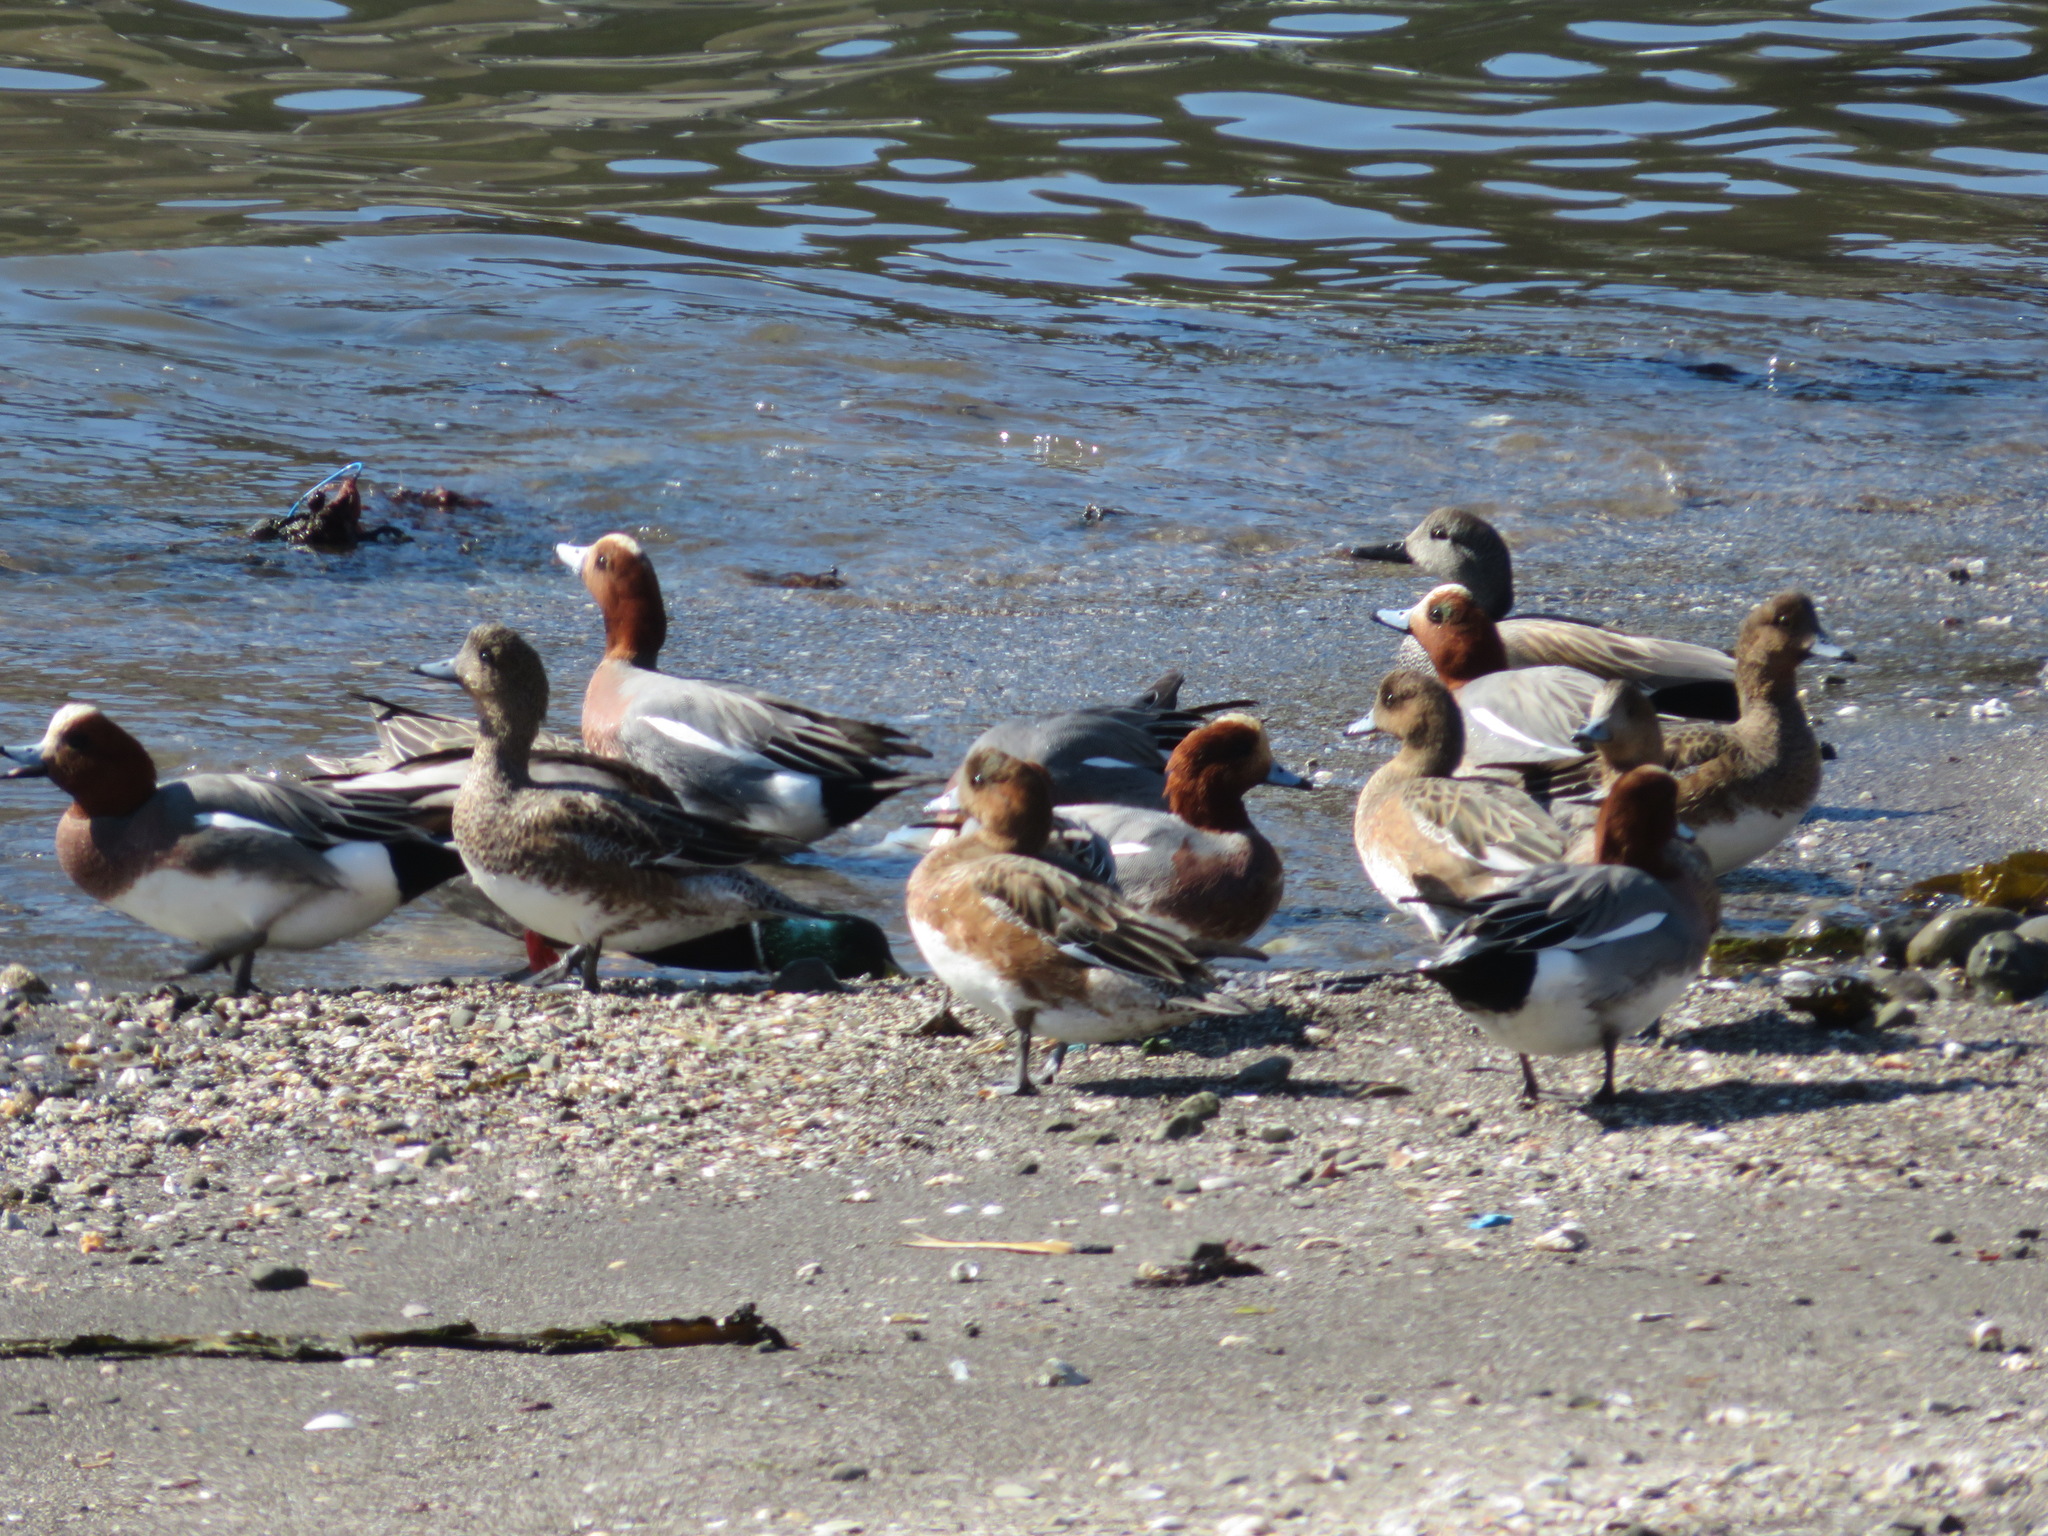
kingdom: Animalia
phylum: Chordata
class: Aves
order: Anseriformes
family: Anatidae
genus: Mareca
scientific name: Mareca penelope
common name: Eurasian wigeon
